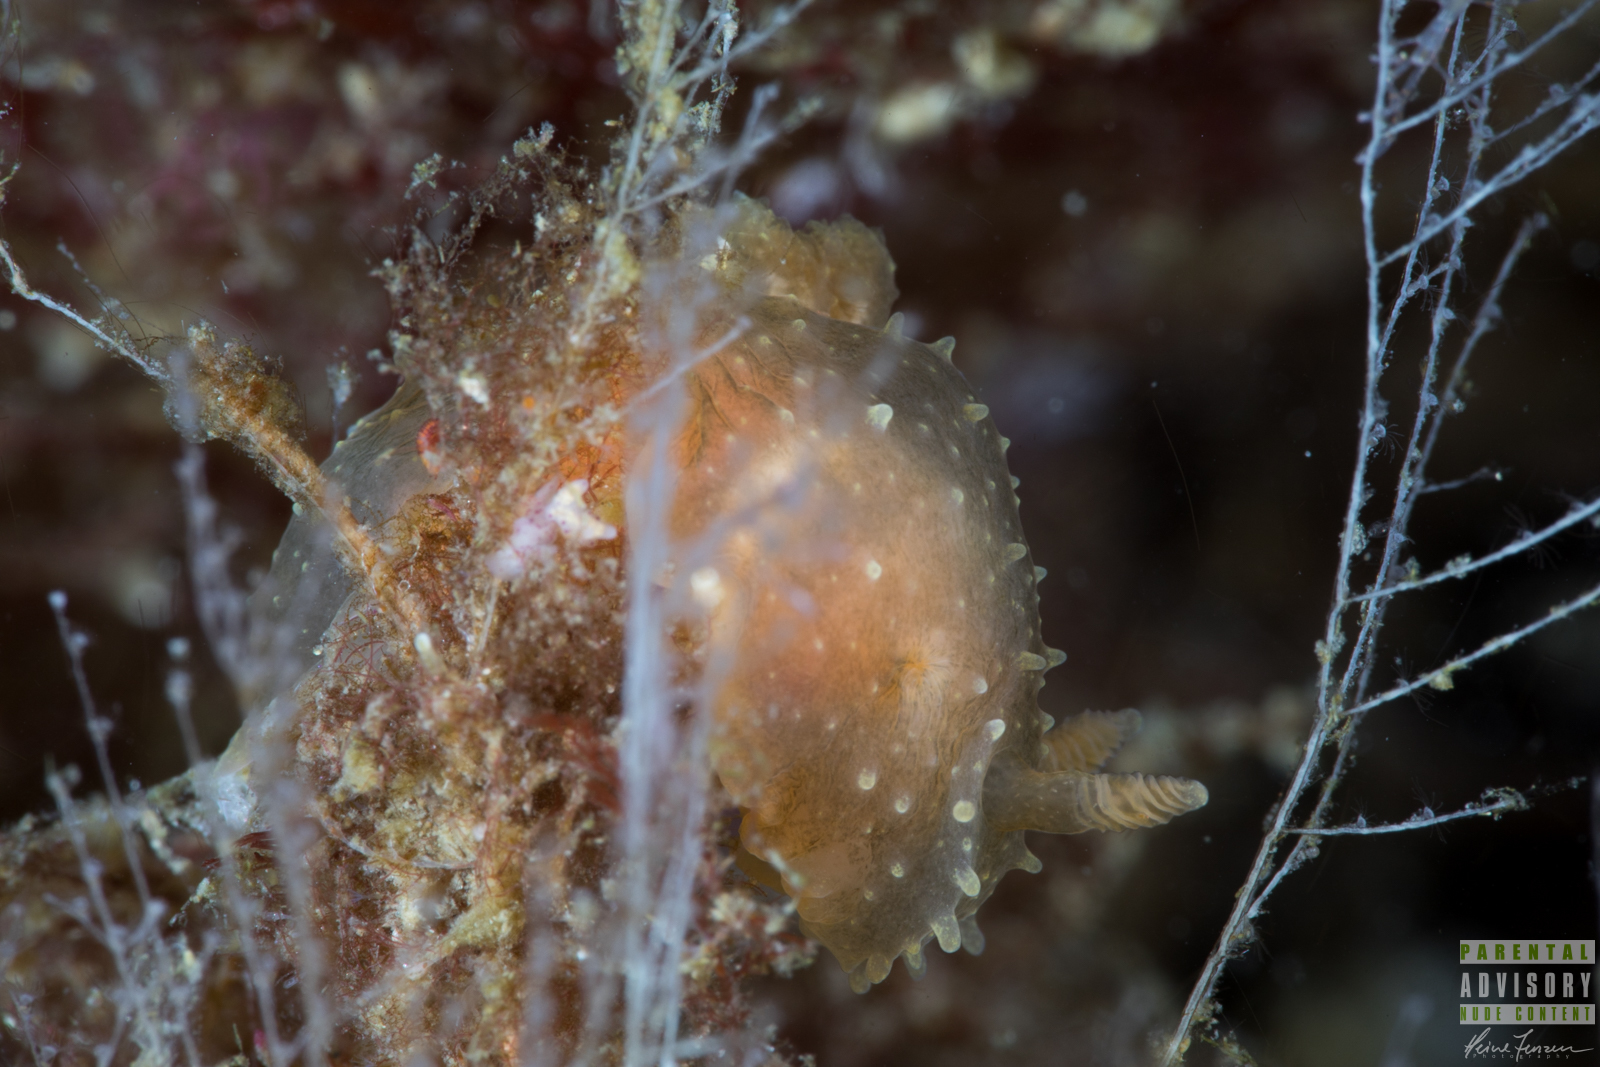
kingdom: Animalia
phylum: Mollusca
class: Gastropoda
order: Nudibranchia
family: Polyceridae
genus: Palio
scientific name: Palio dubia
